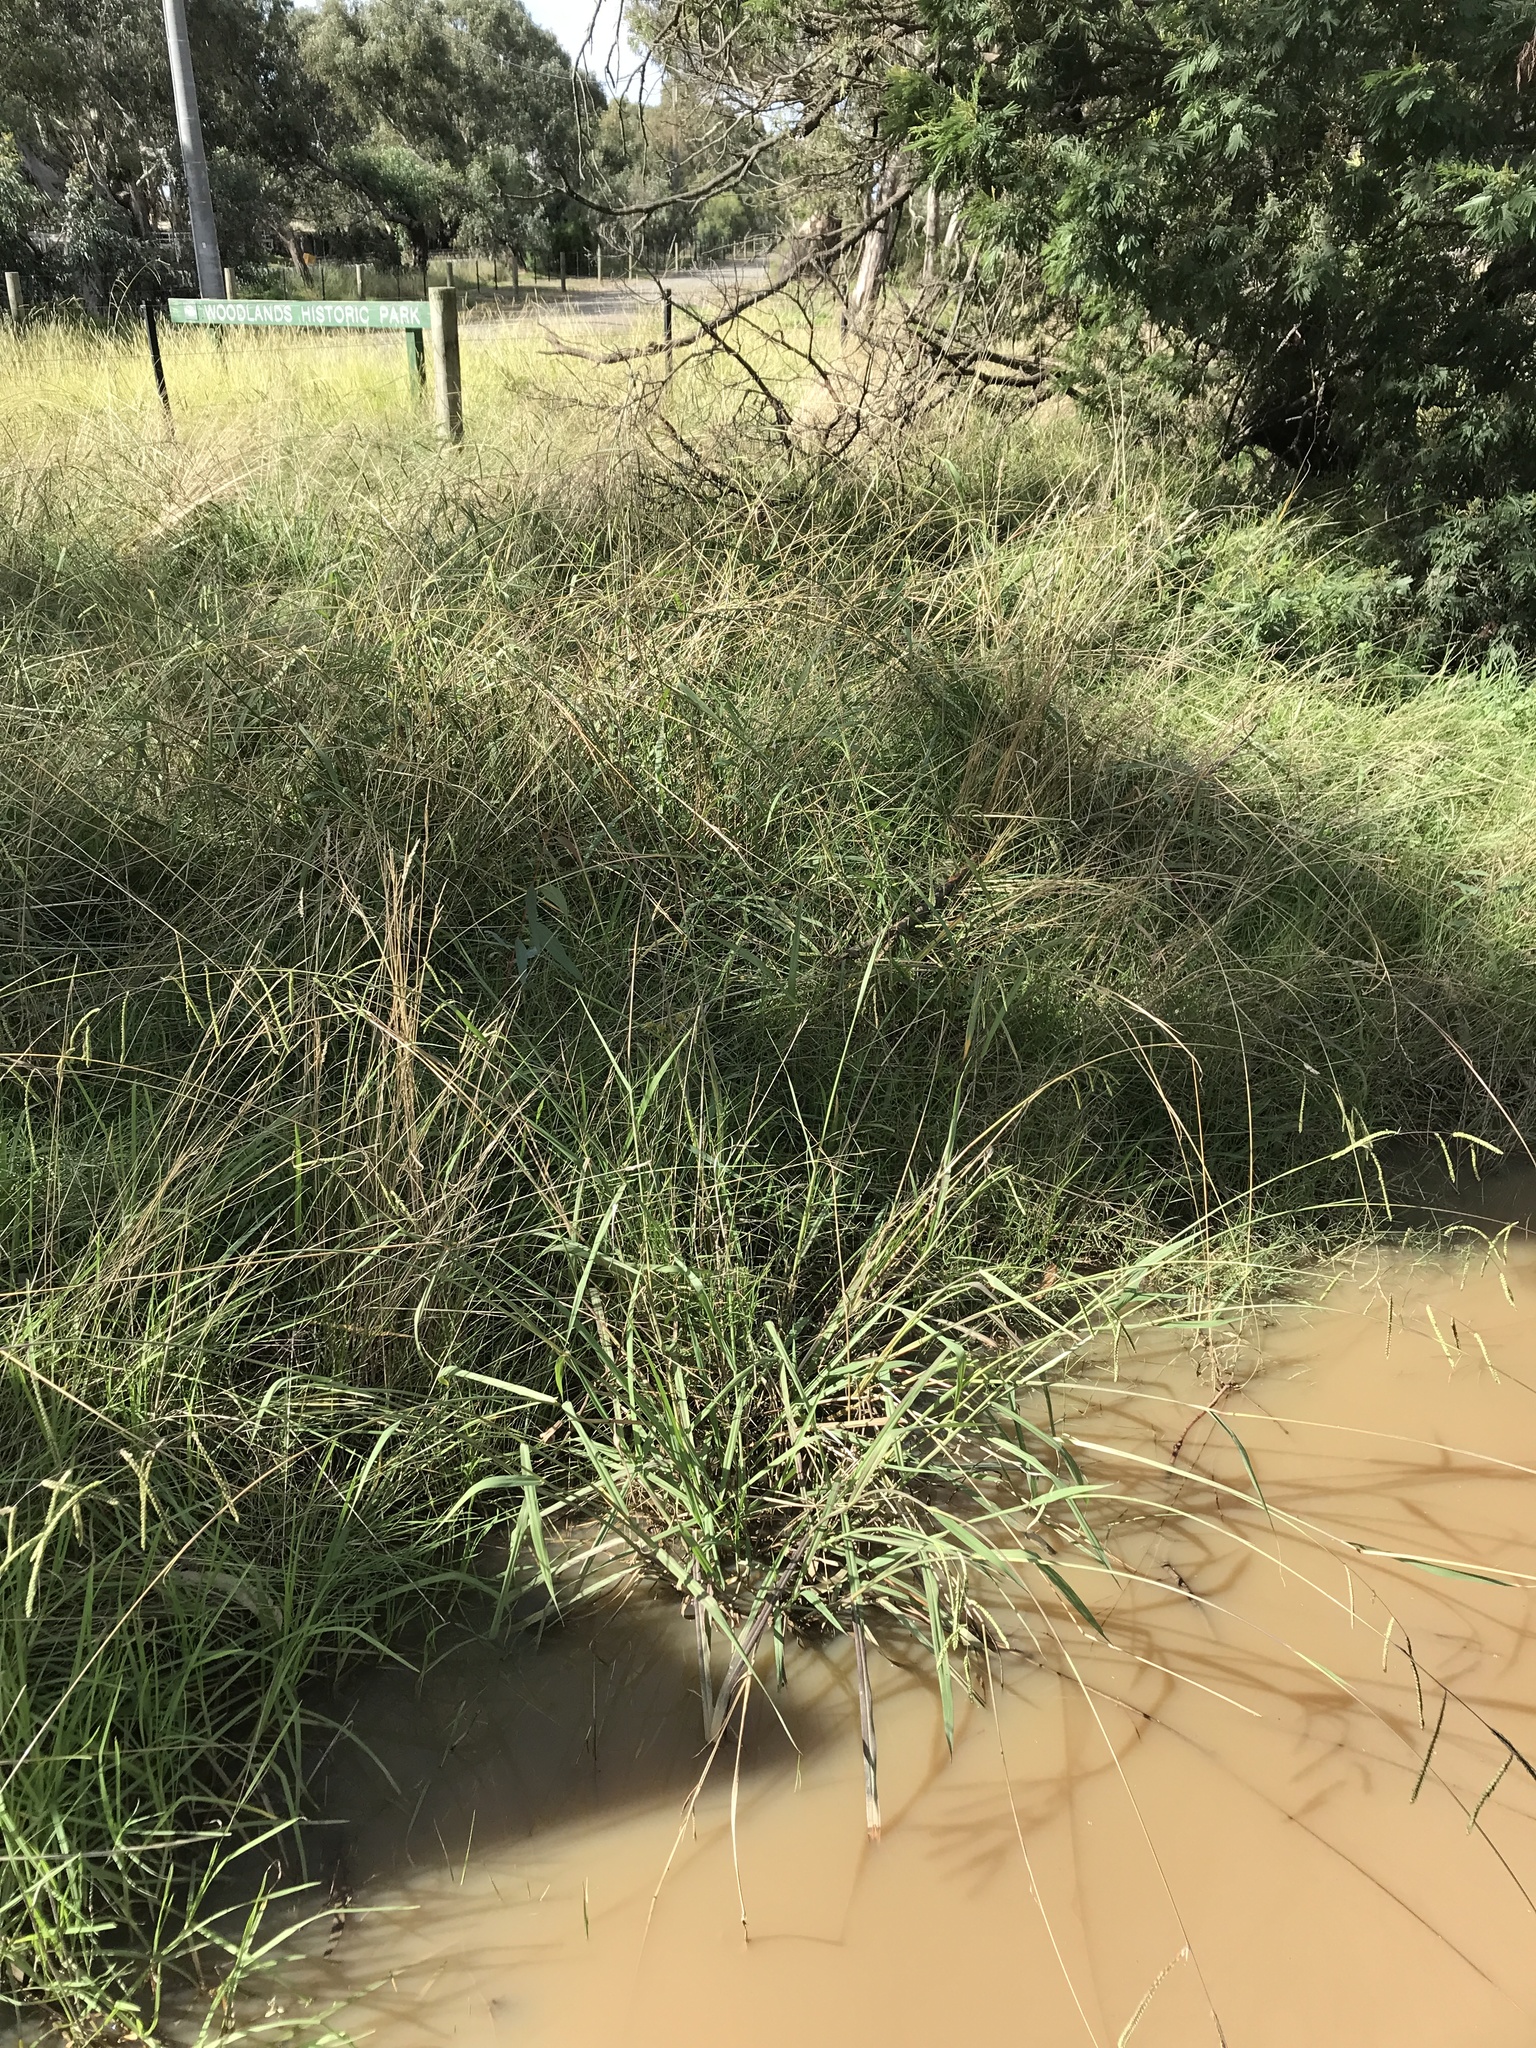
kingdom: Animalia
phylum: Chordata
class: Amphibia
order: Anura
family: Myobatrachidae
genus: Crinia
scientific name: Crinia signifera
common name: Brown froglet
